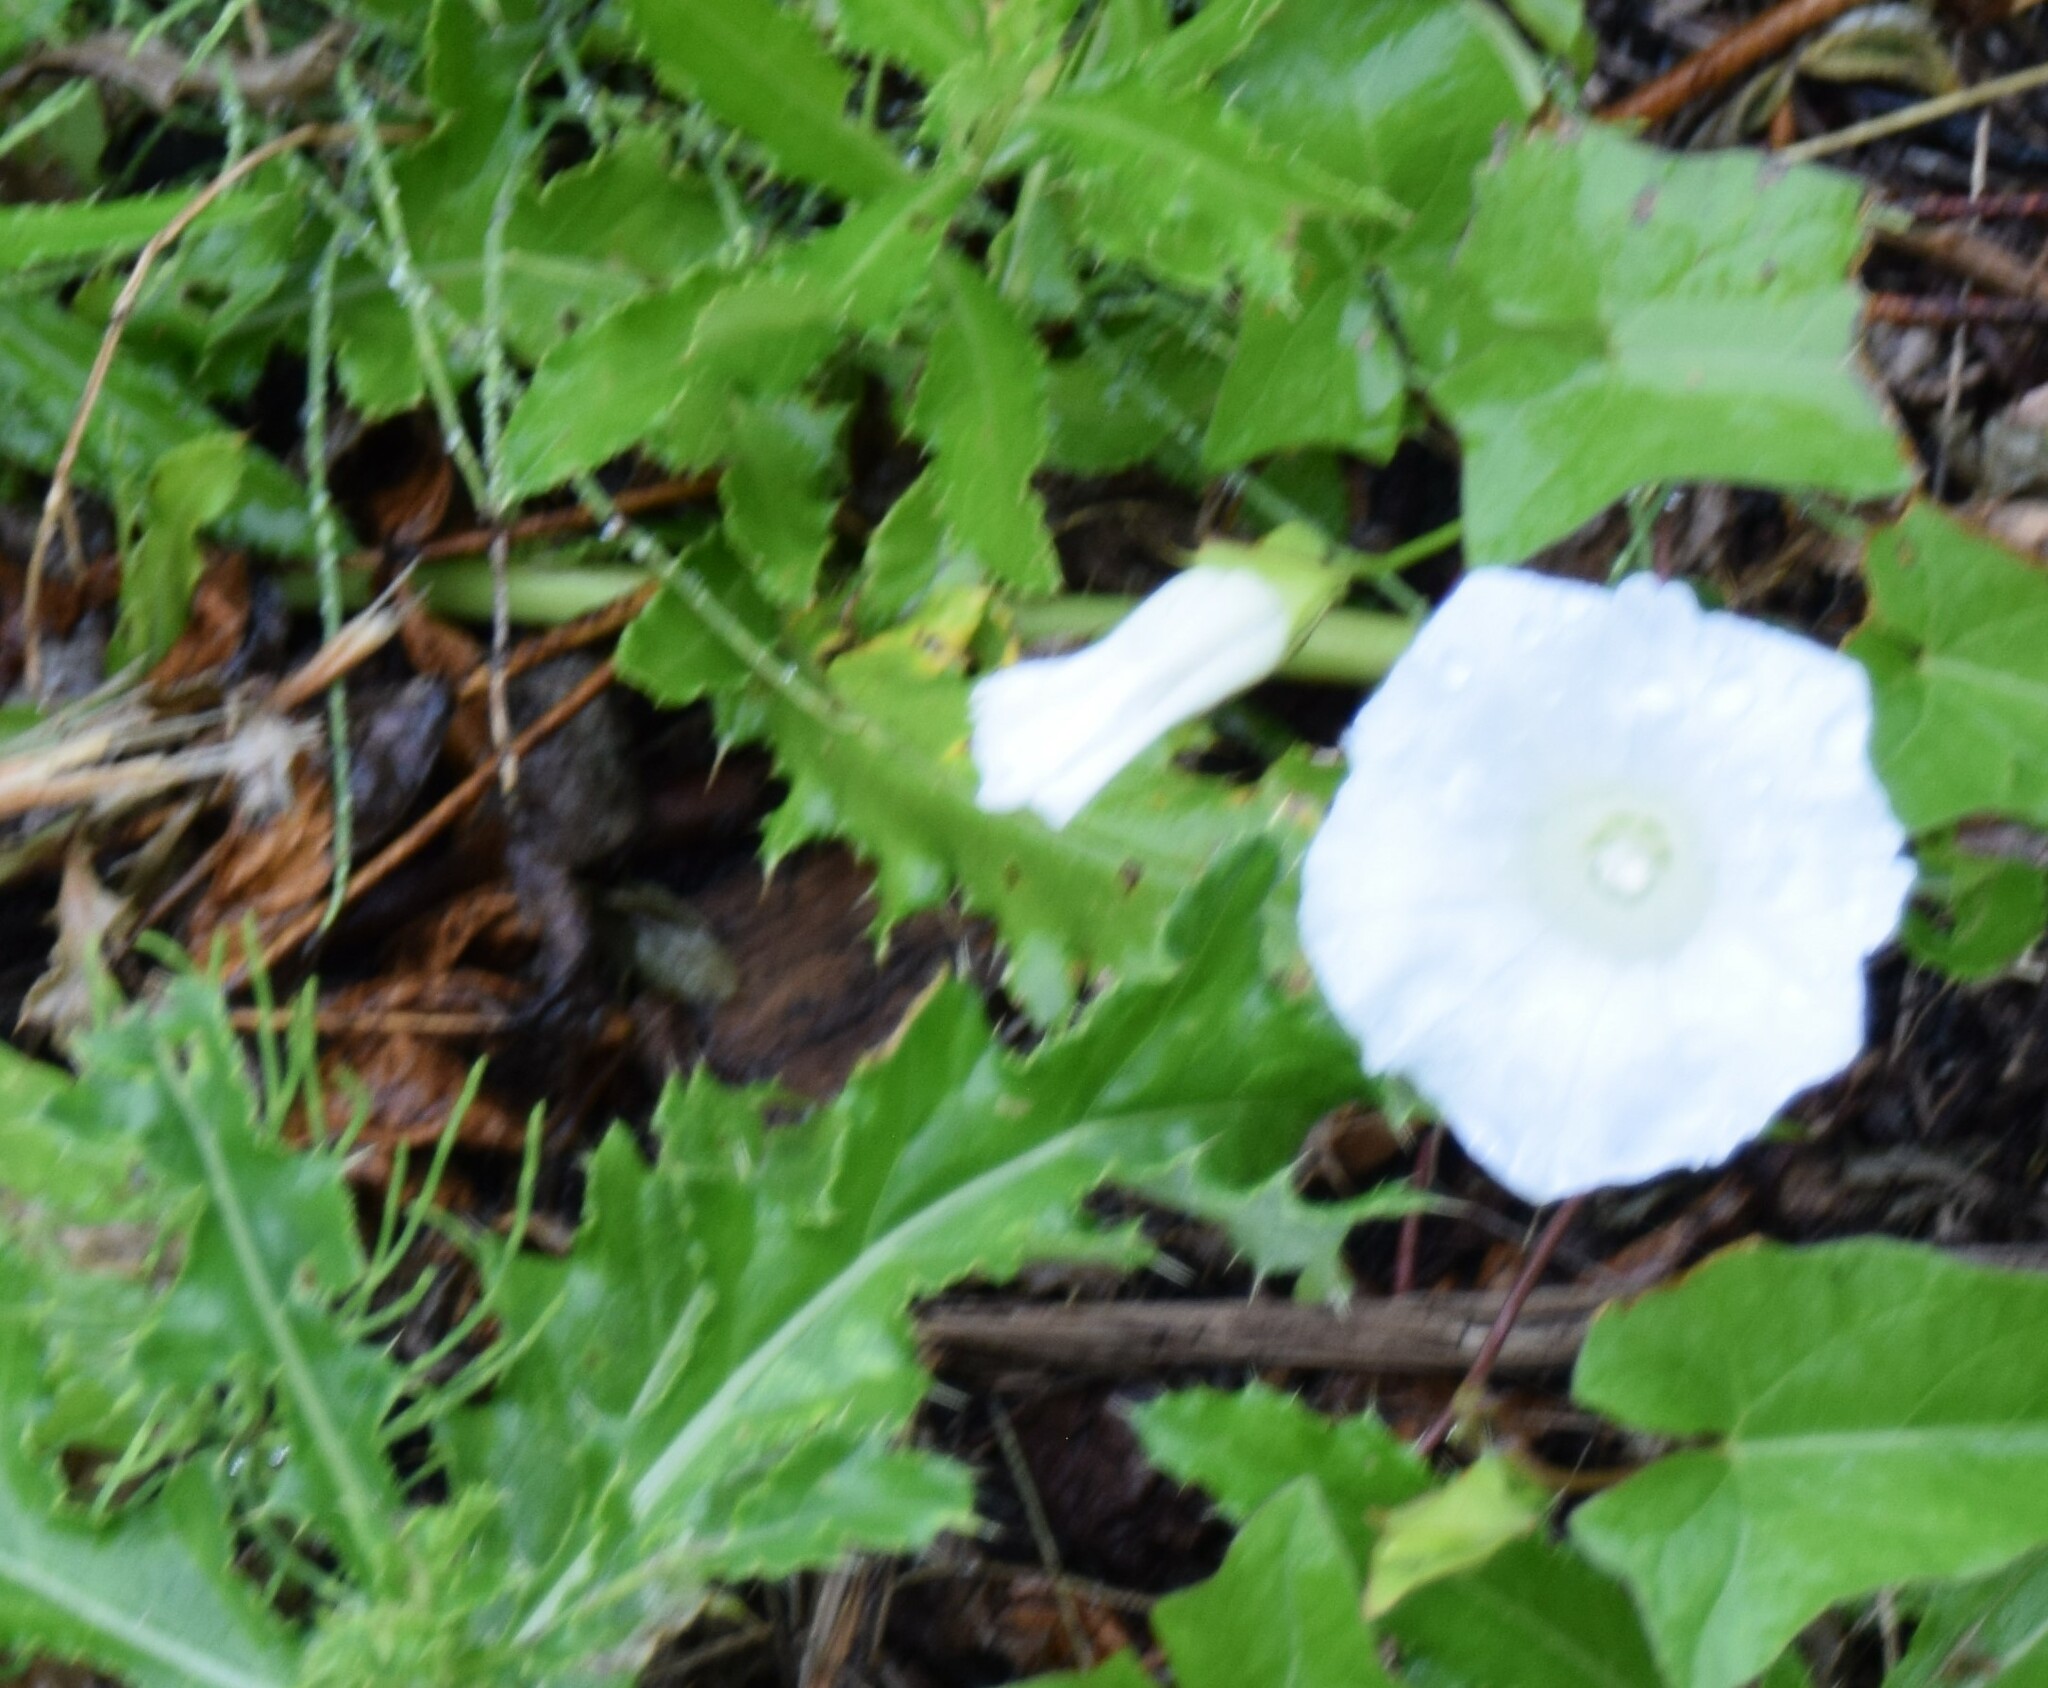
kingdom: Plantae
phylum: Tracheophyta
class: Magnoliopsida
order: Solanales
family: Convolvulaceae
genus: Calystegia
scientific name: Calystegia sepium
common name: Hedge bindweed
